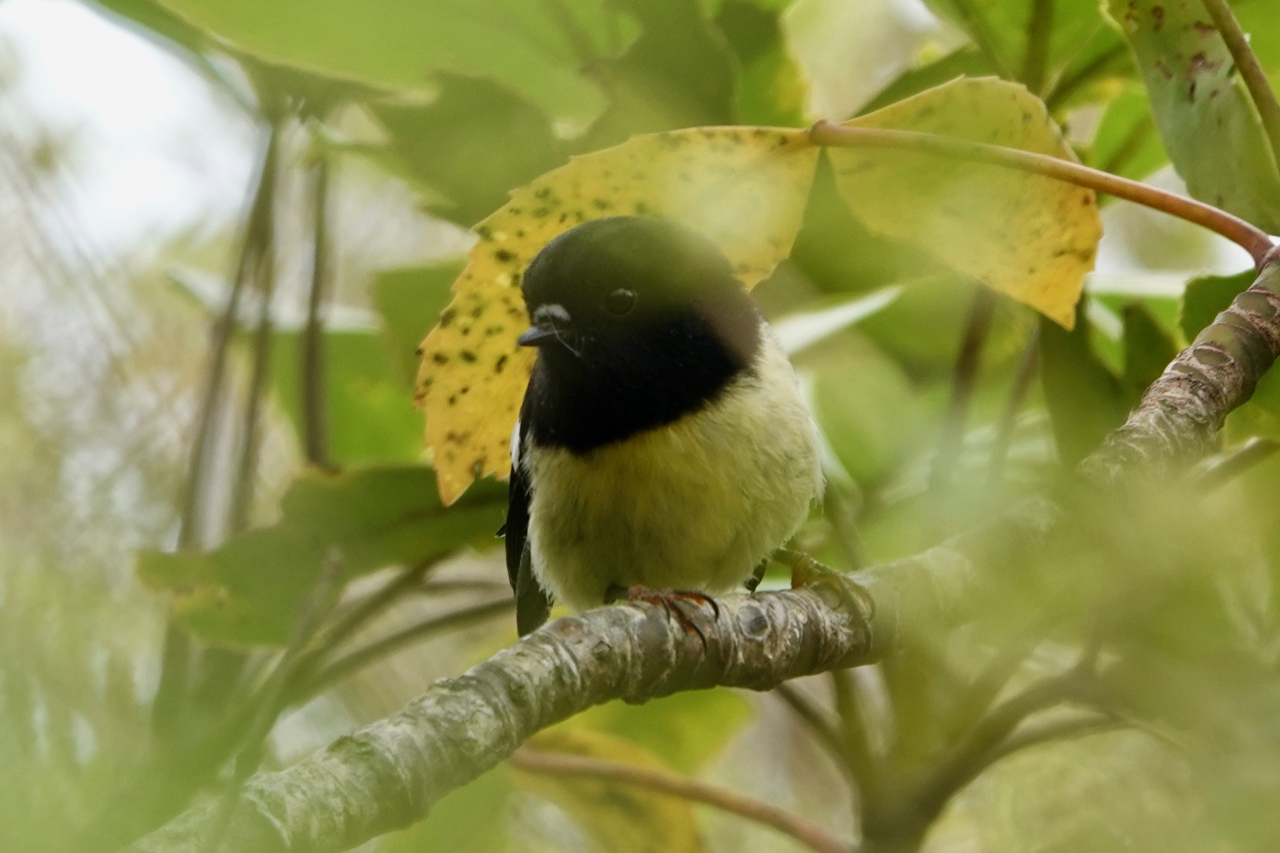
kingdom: Animalia
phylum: Chordata
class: Aves
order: Passeriformes
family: Petroicidae
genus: Petroica
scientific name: Petroica macrocephala
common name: Tomtit
